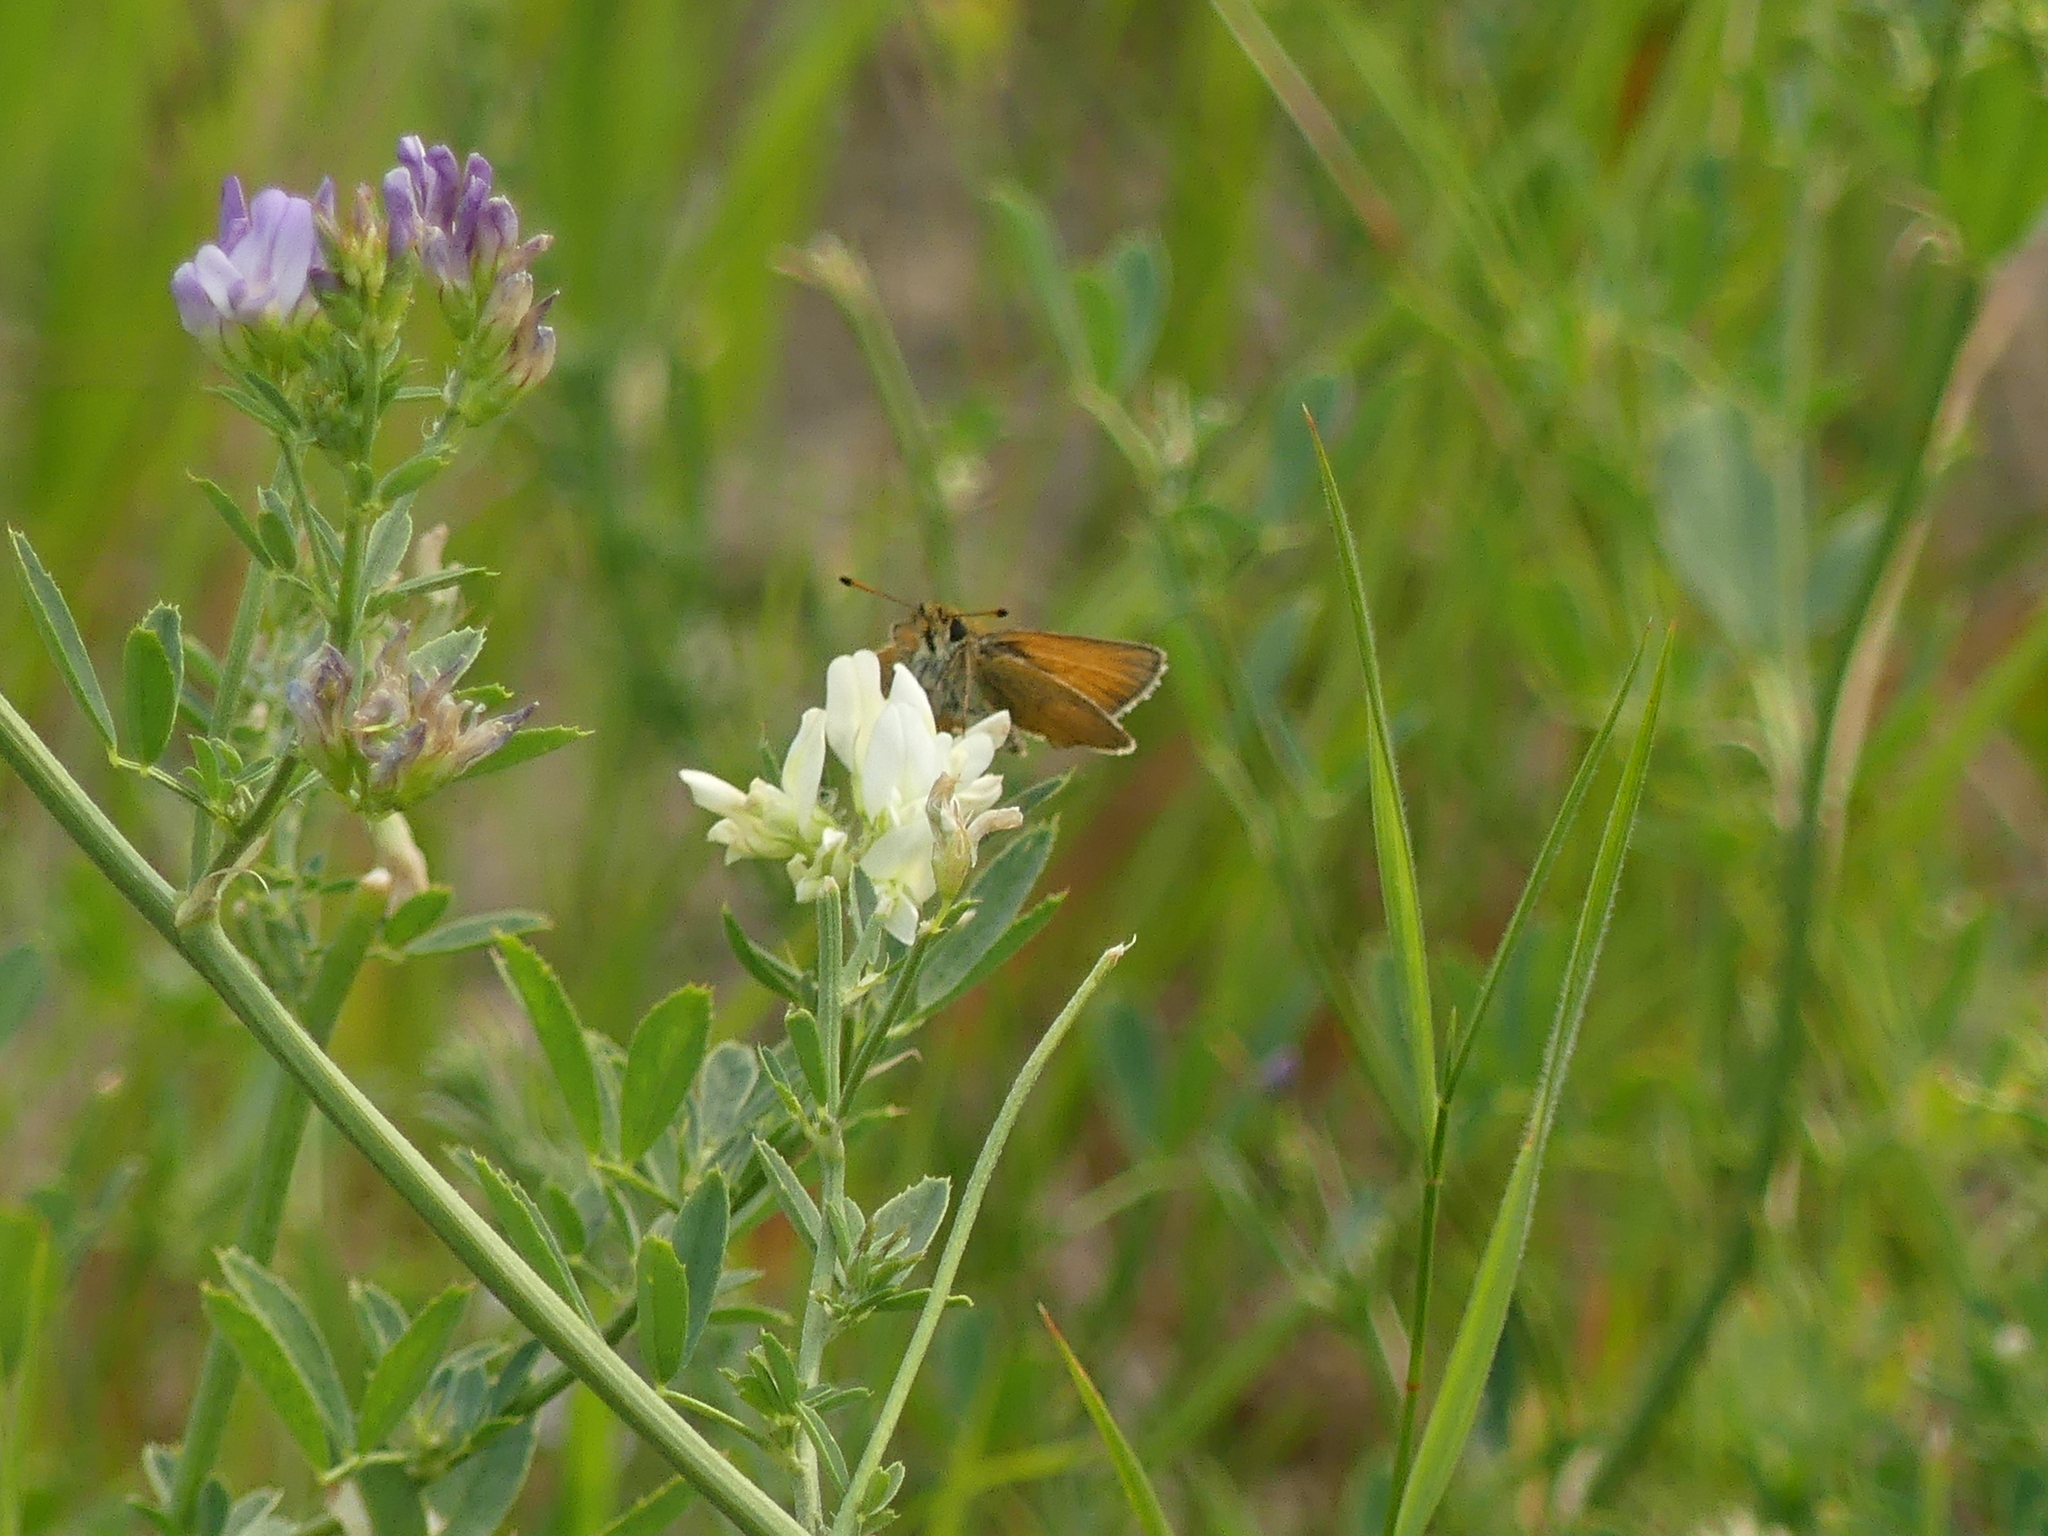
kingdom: Animalia
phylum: Arthropoda
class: Insecta
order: Lepidoptera
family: Hesperiidae
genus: Thymelicus
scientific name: Thymelicus lineola
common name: Essex skipper
